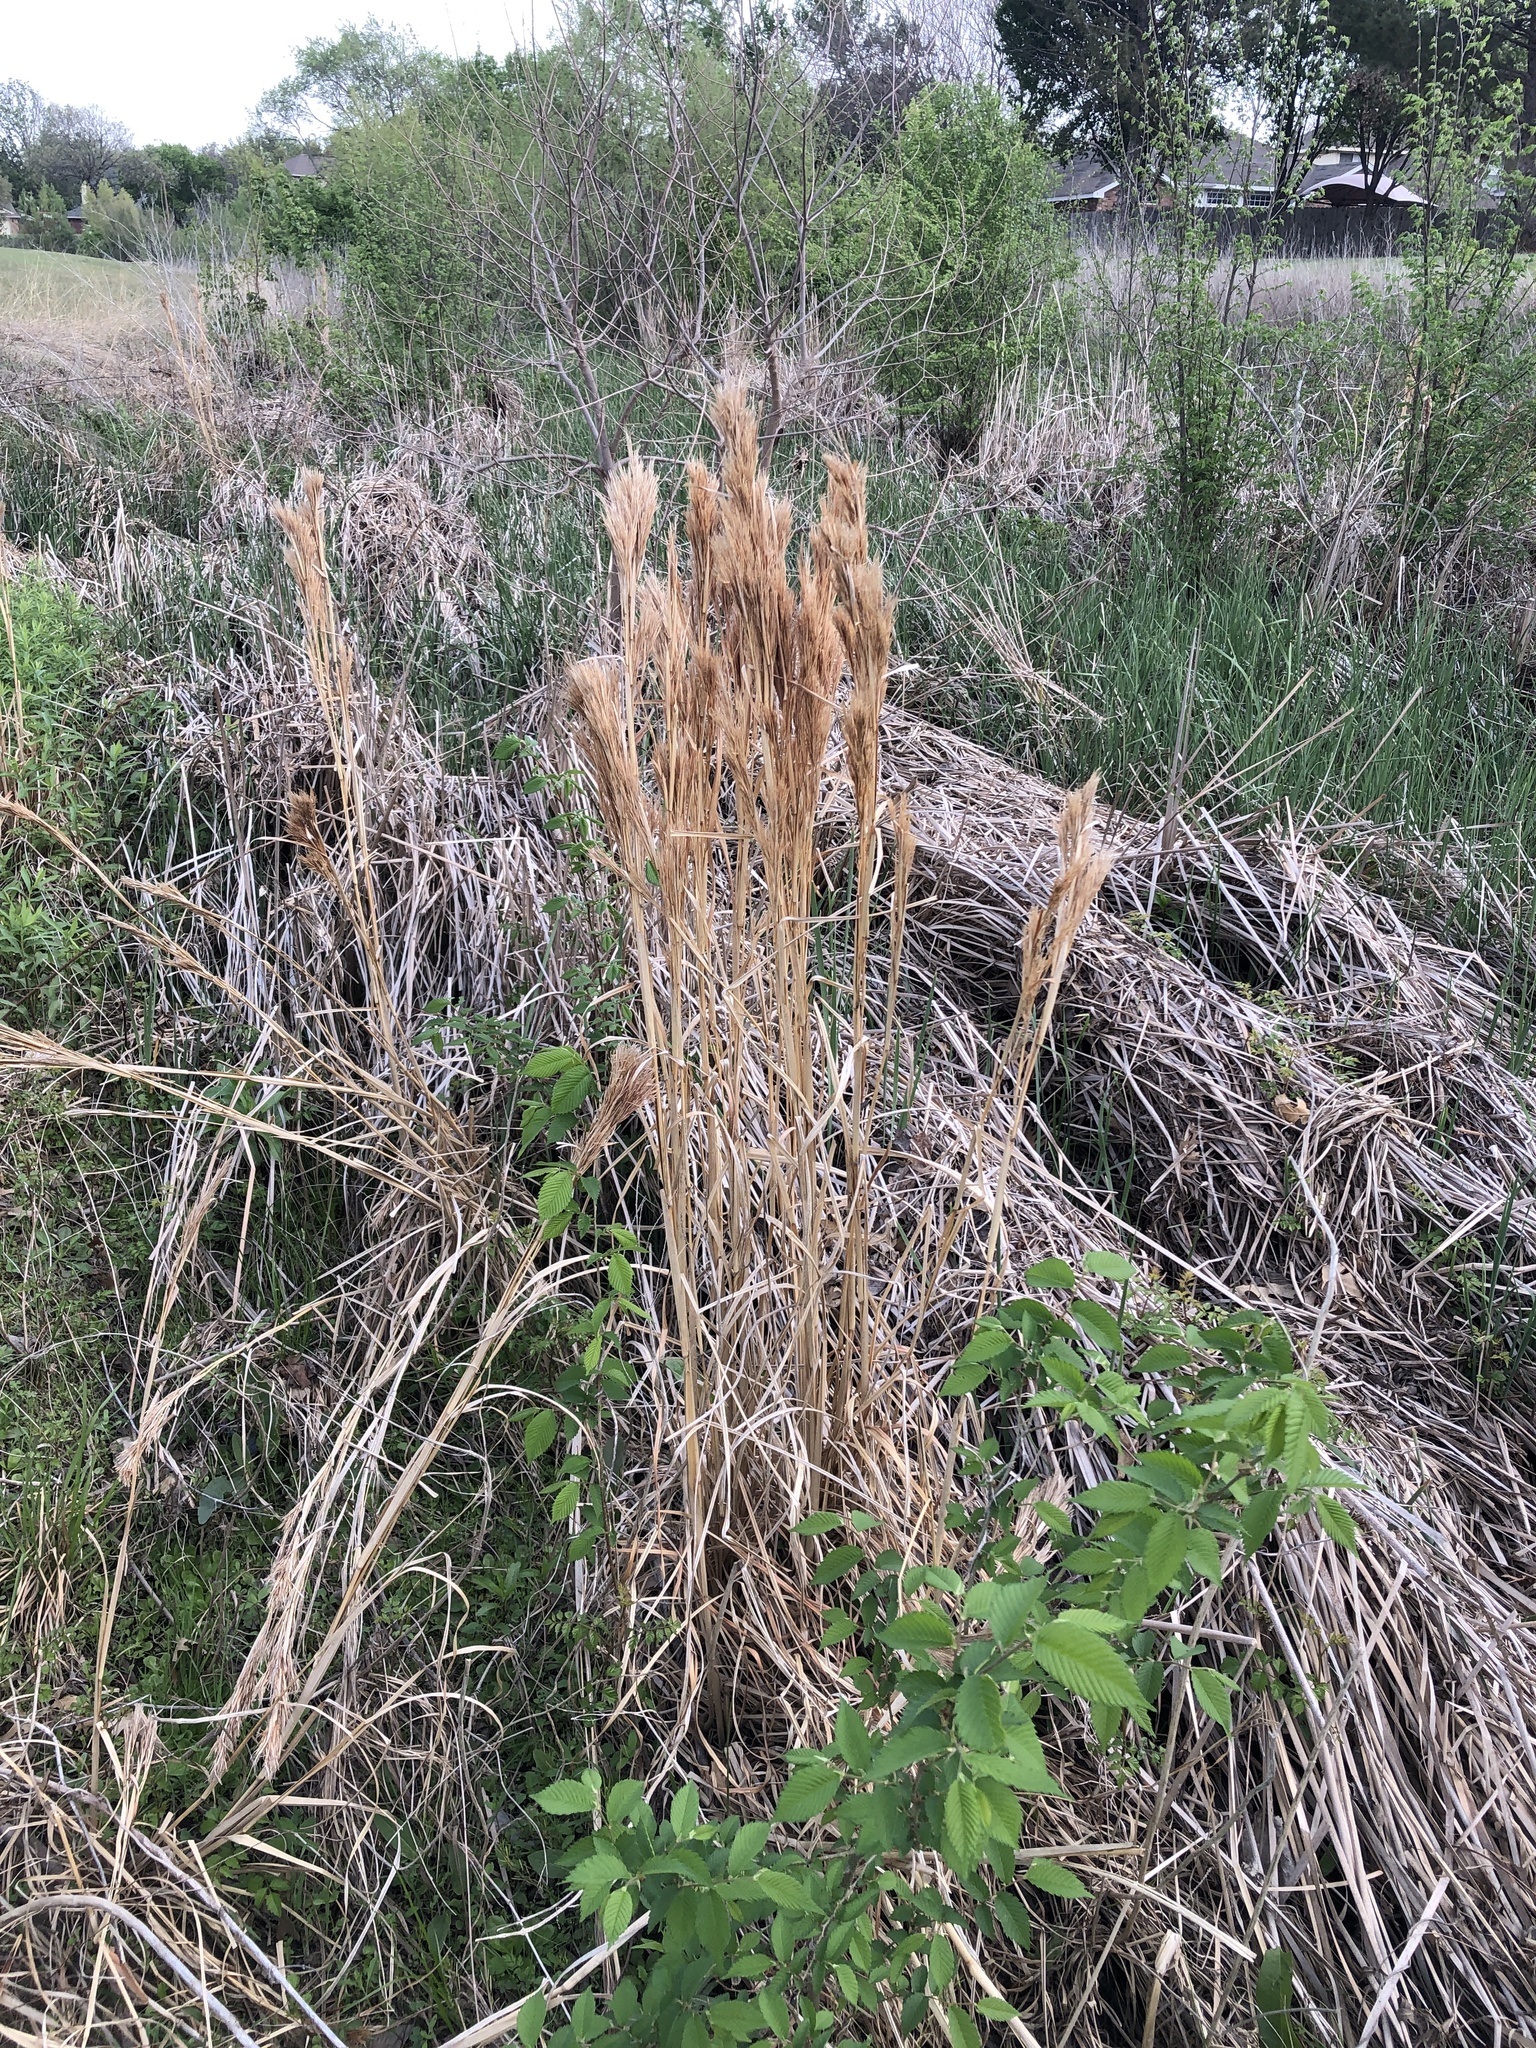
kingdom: Plantae
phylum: Tracheophyta
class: Liliopsida
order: Poales
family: Poaceae
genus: Andropogon
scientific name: Andropogon tenuispatheus
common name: Bushy bluestem
